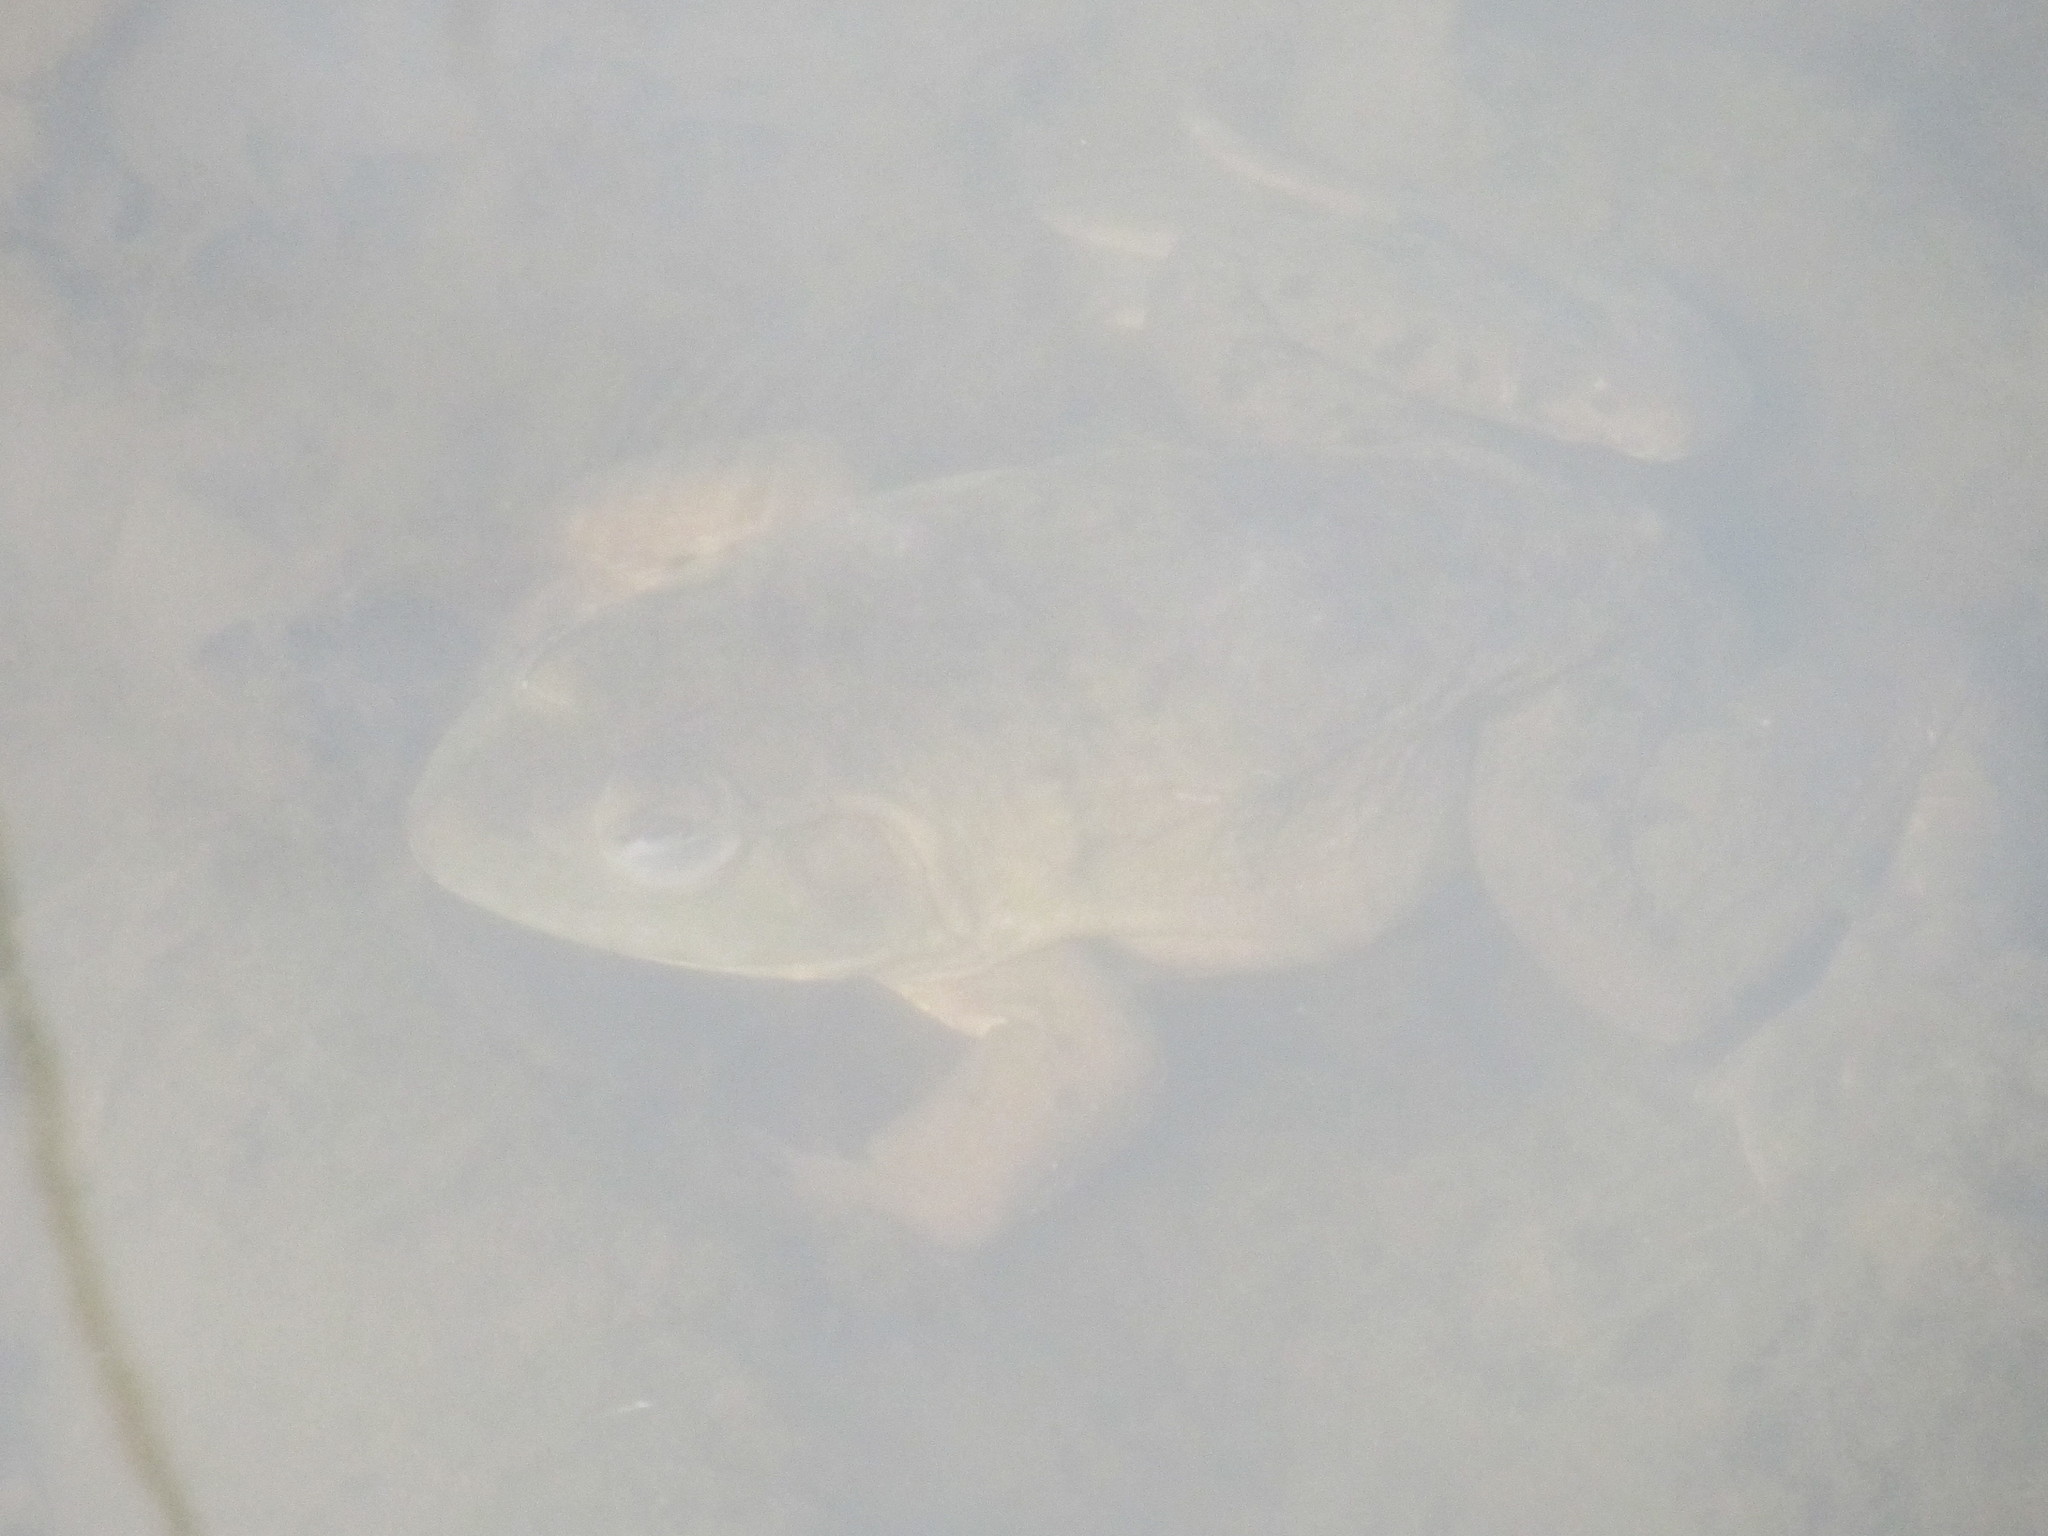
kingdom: Animalia
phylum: Chordata
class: Amphibia
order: Anura
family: Ranidae
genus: Lithobates
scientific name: Lithobates catesbeianus
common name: American bullfrog
